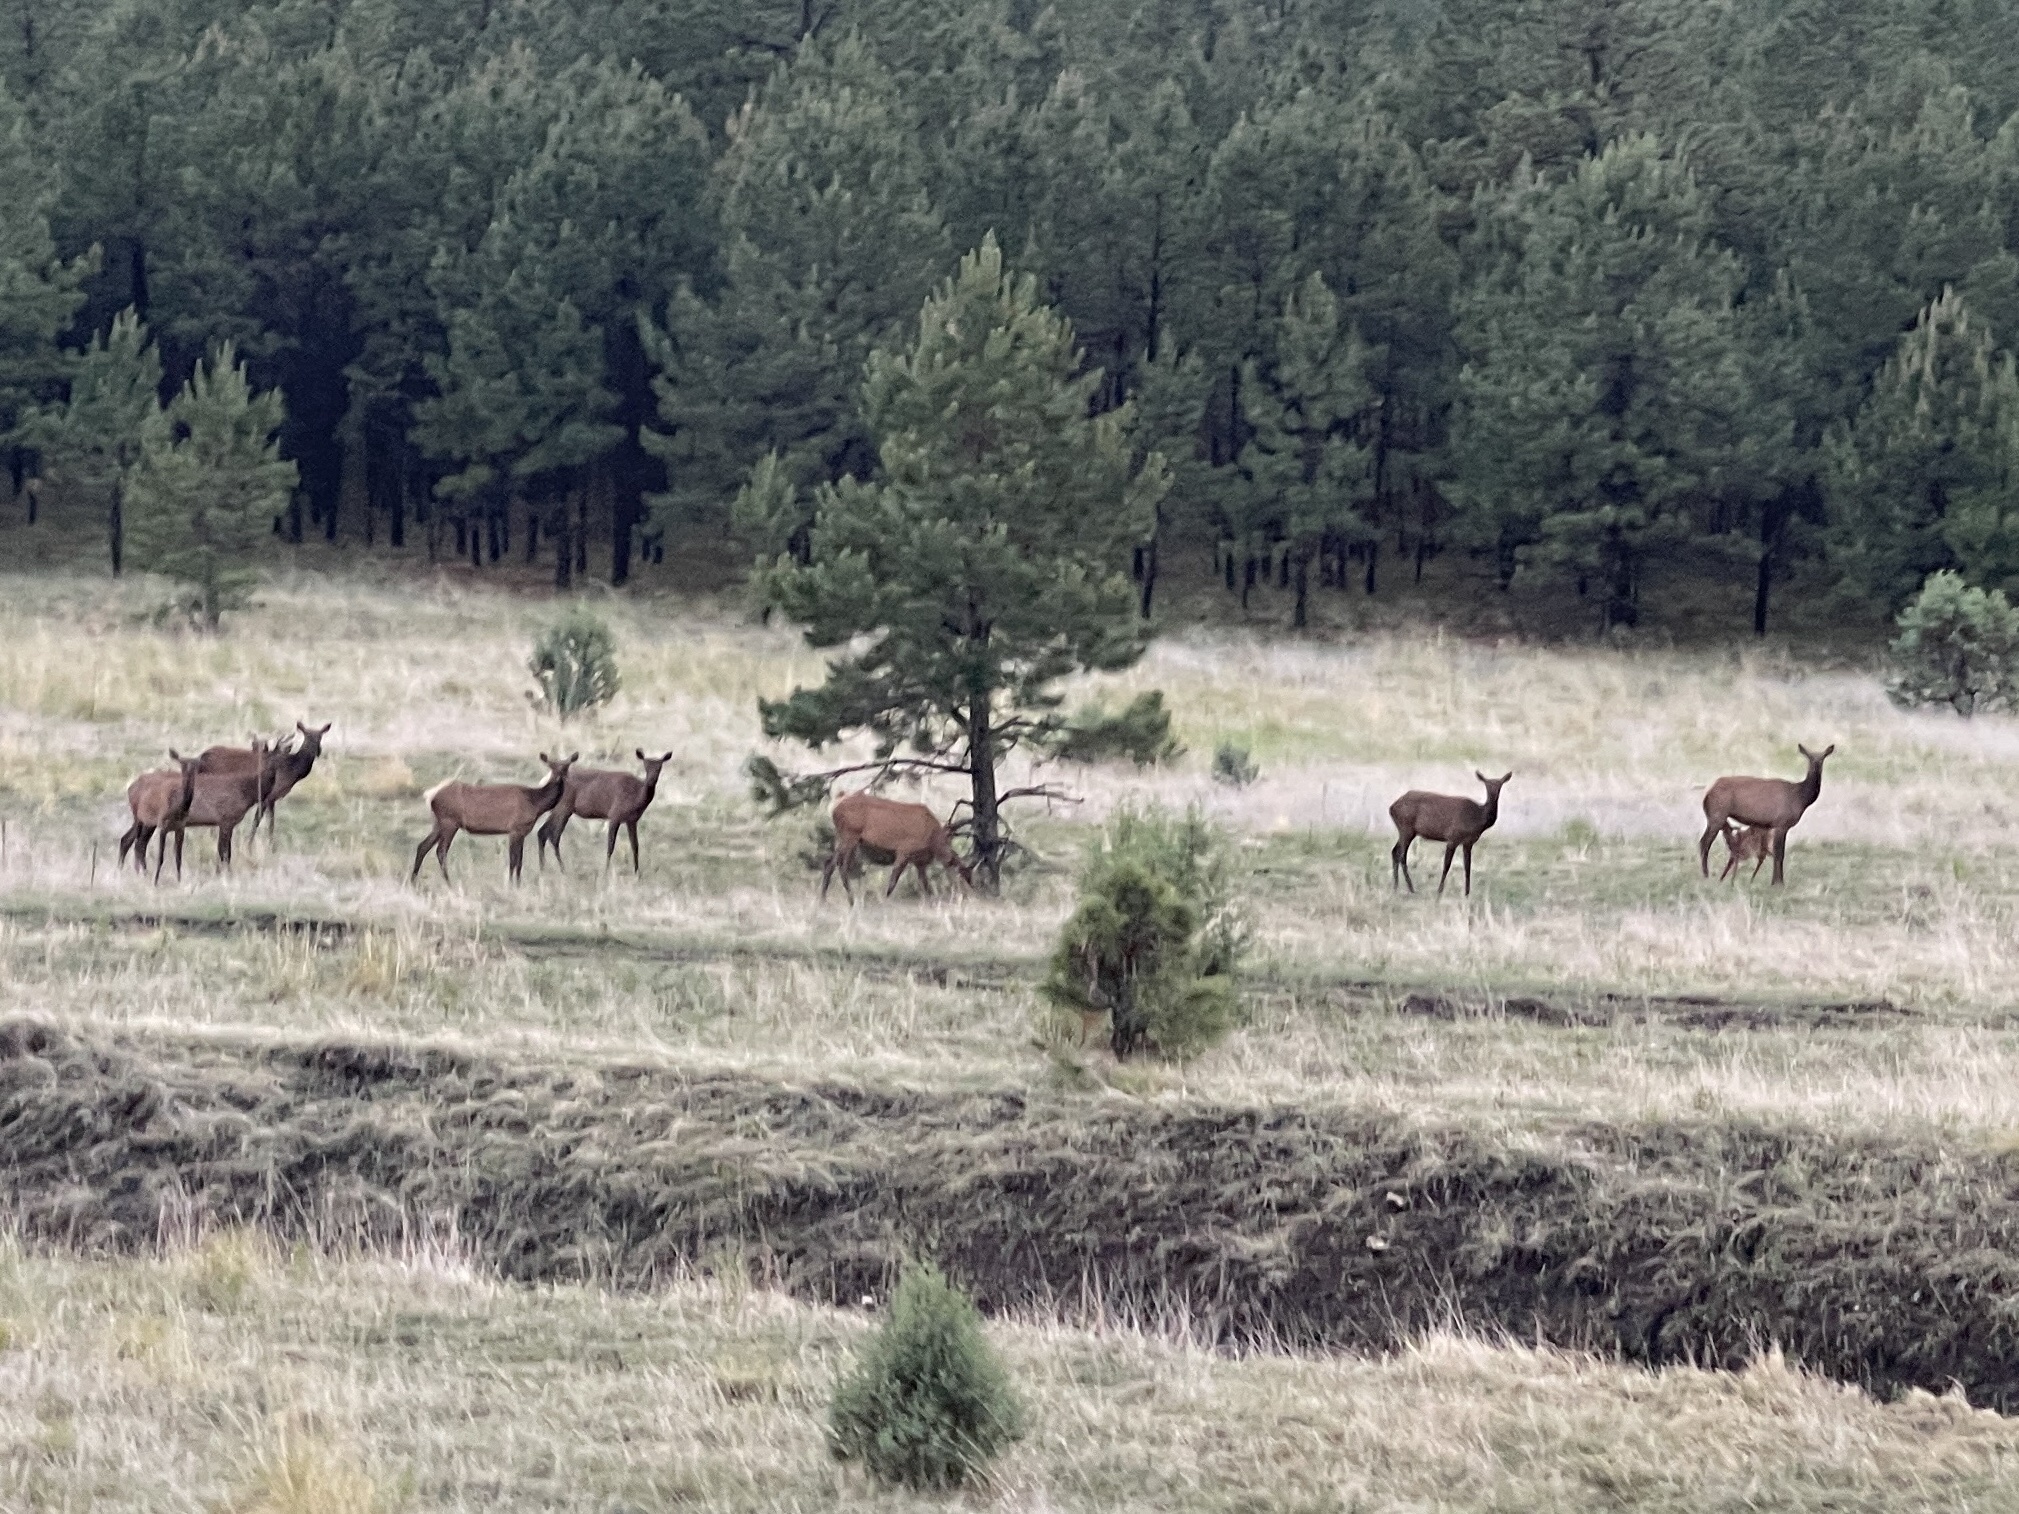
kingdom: Animalia
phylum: Chordata
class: Mammalia
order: Artiodactyla
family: Cervidae
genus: Cervus
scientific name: Cervus elaphus
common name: Red deer
